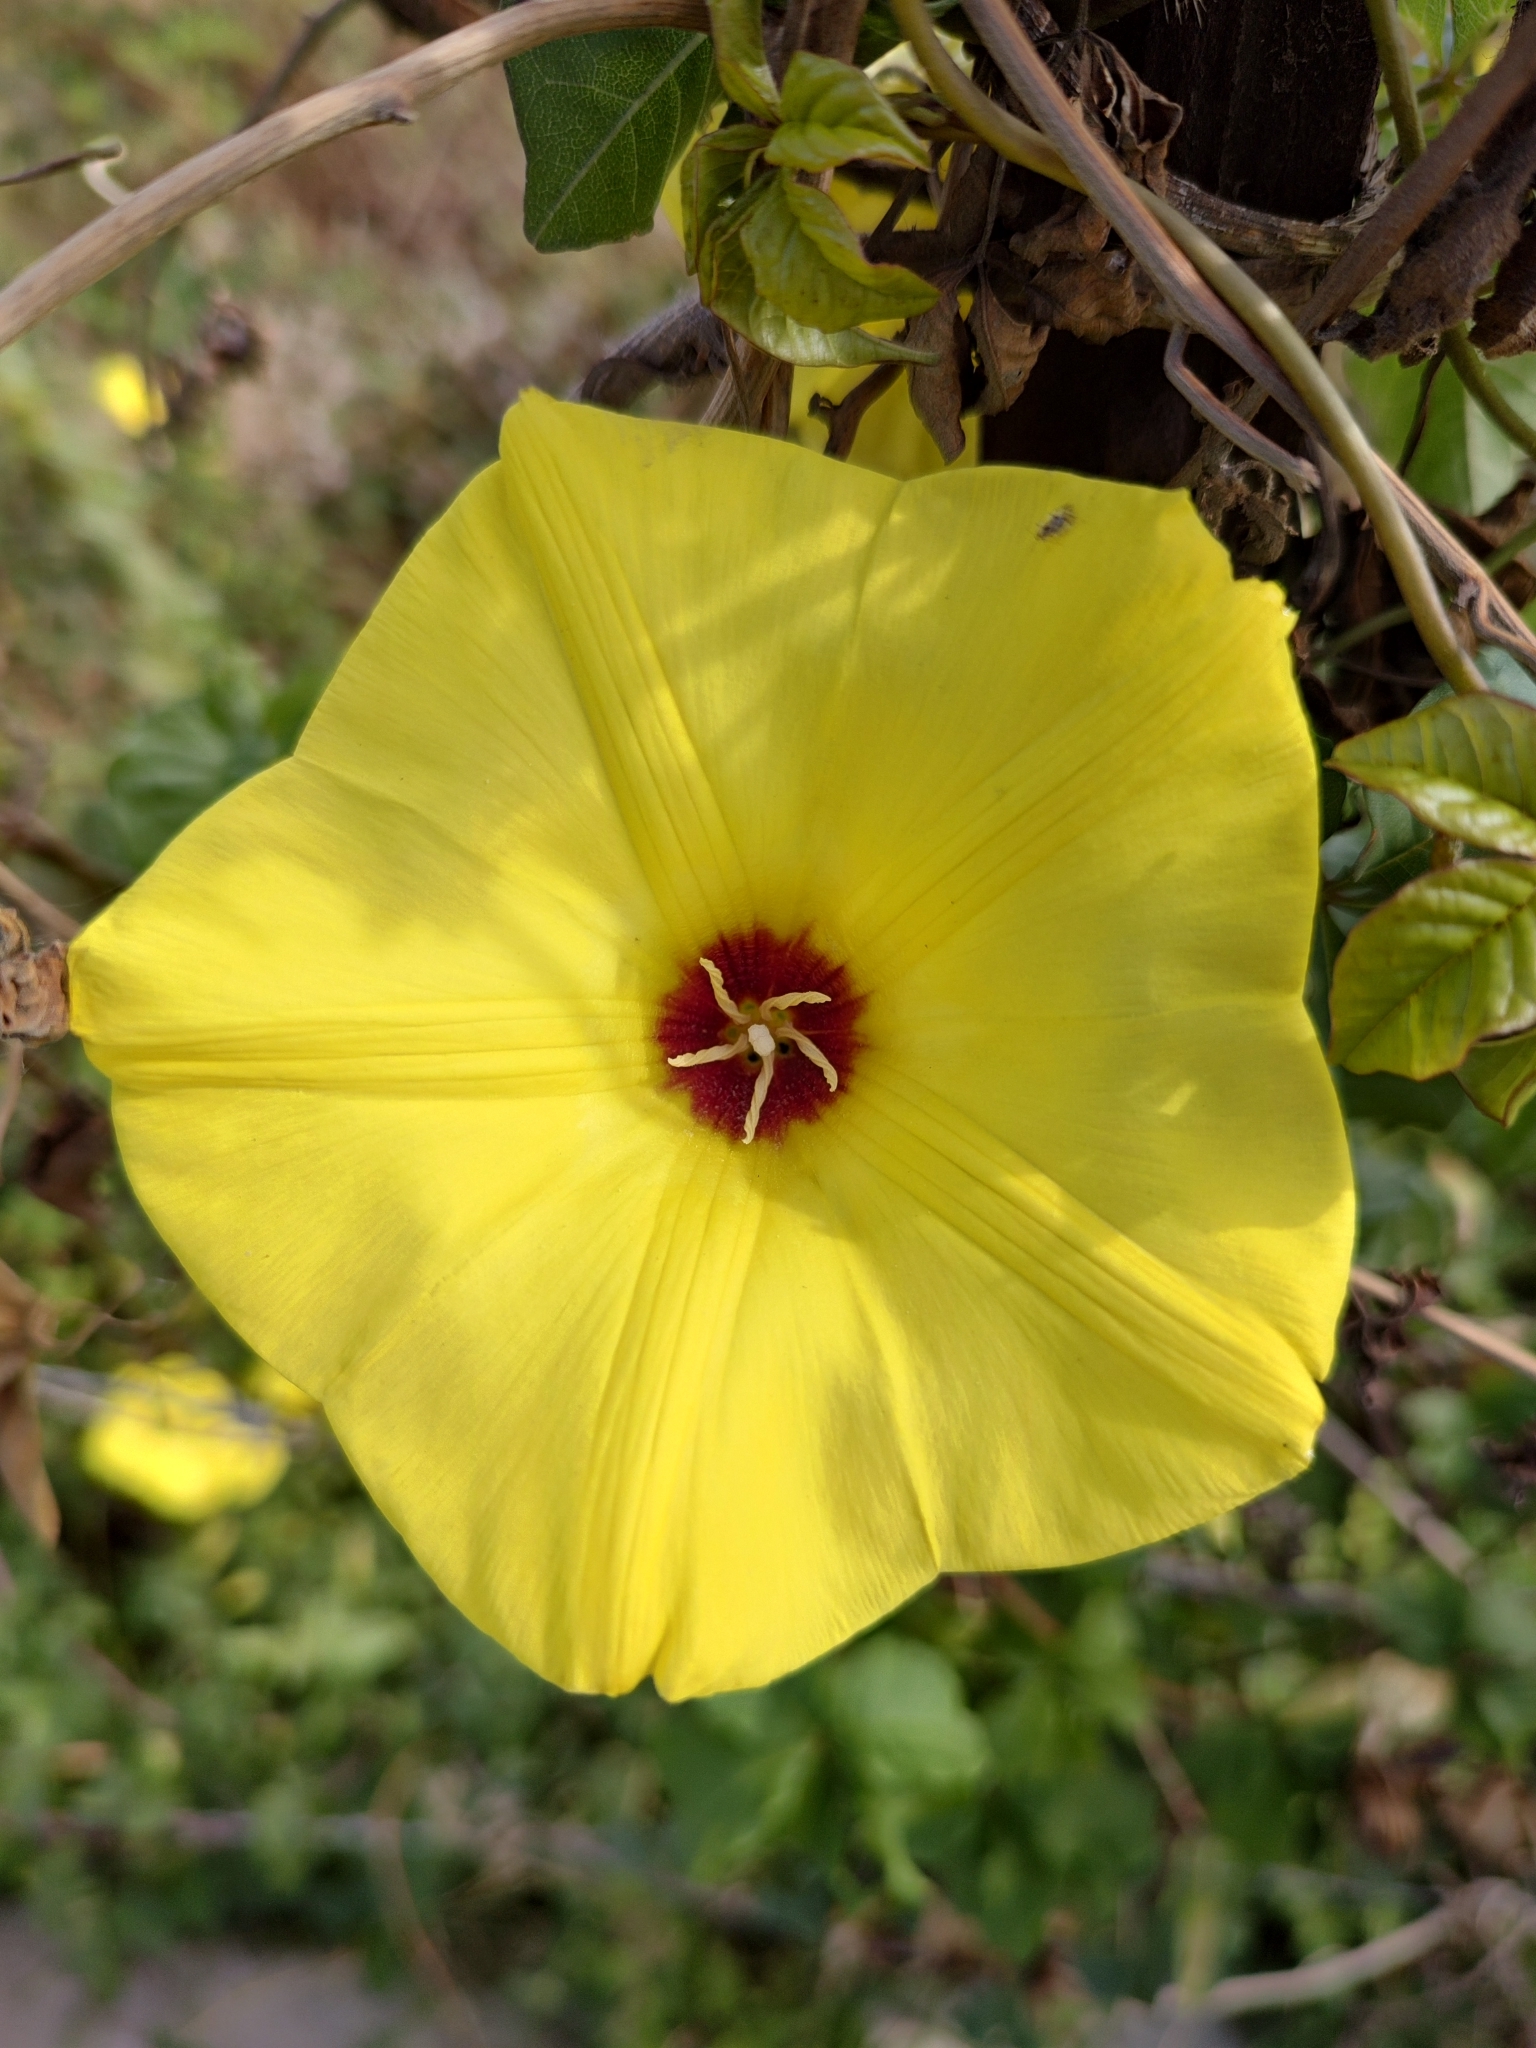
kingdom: Plantae
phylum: Tracheophyta
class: Magnoliopsida
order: Solanales
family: Convolvulaceae
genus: Distimake
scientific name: Distimake aureus
